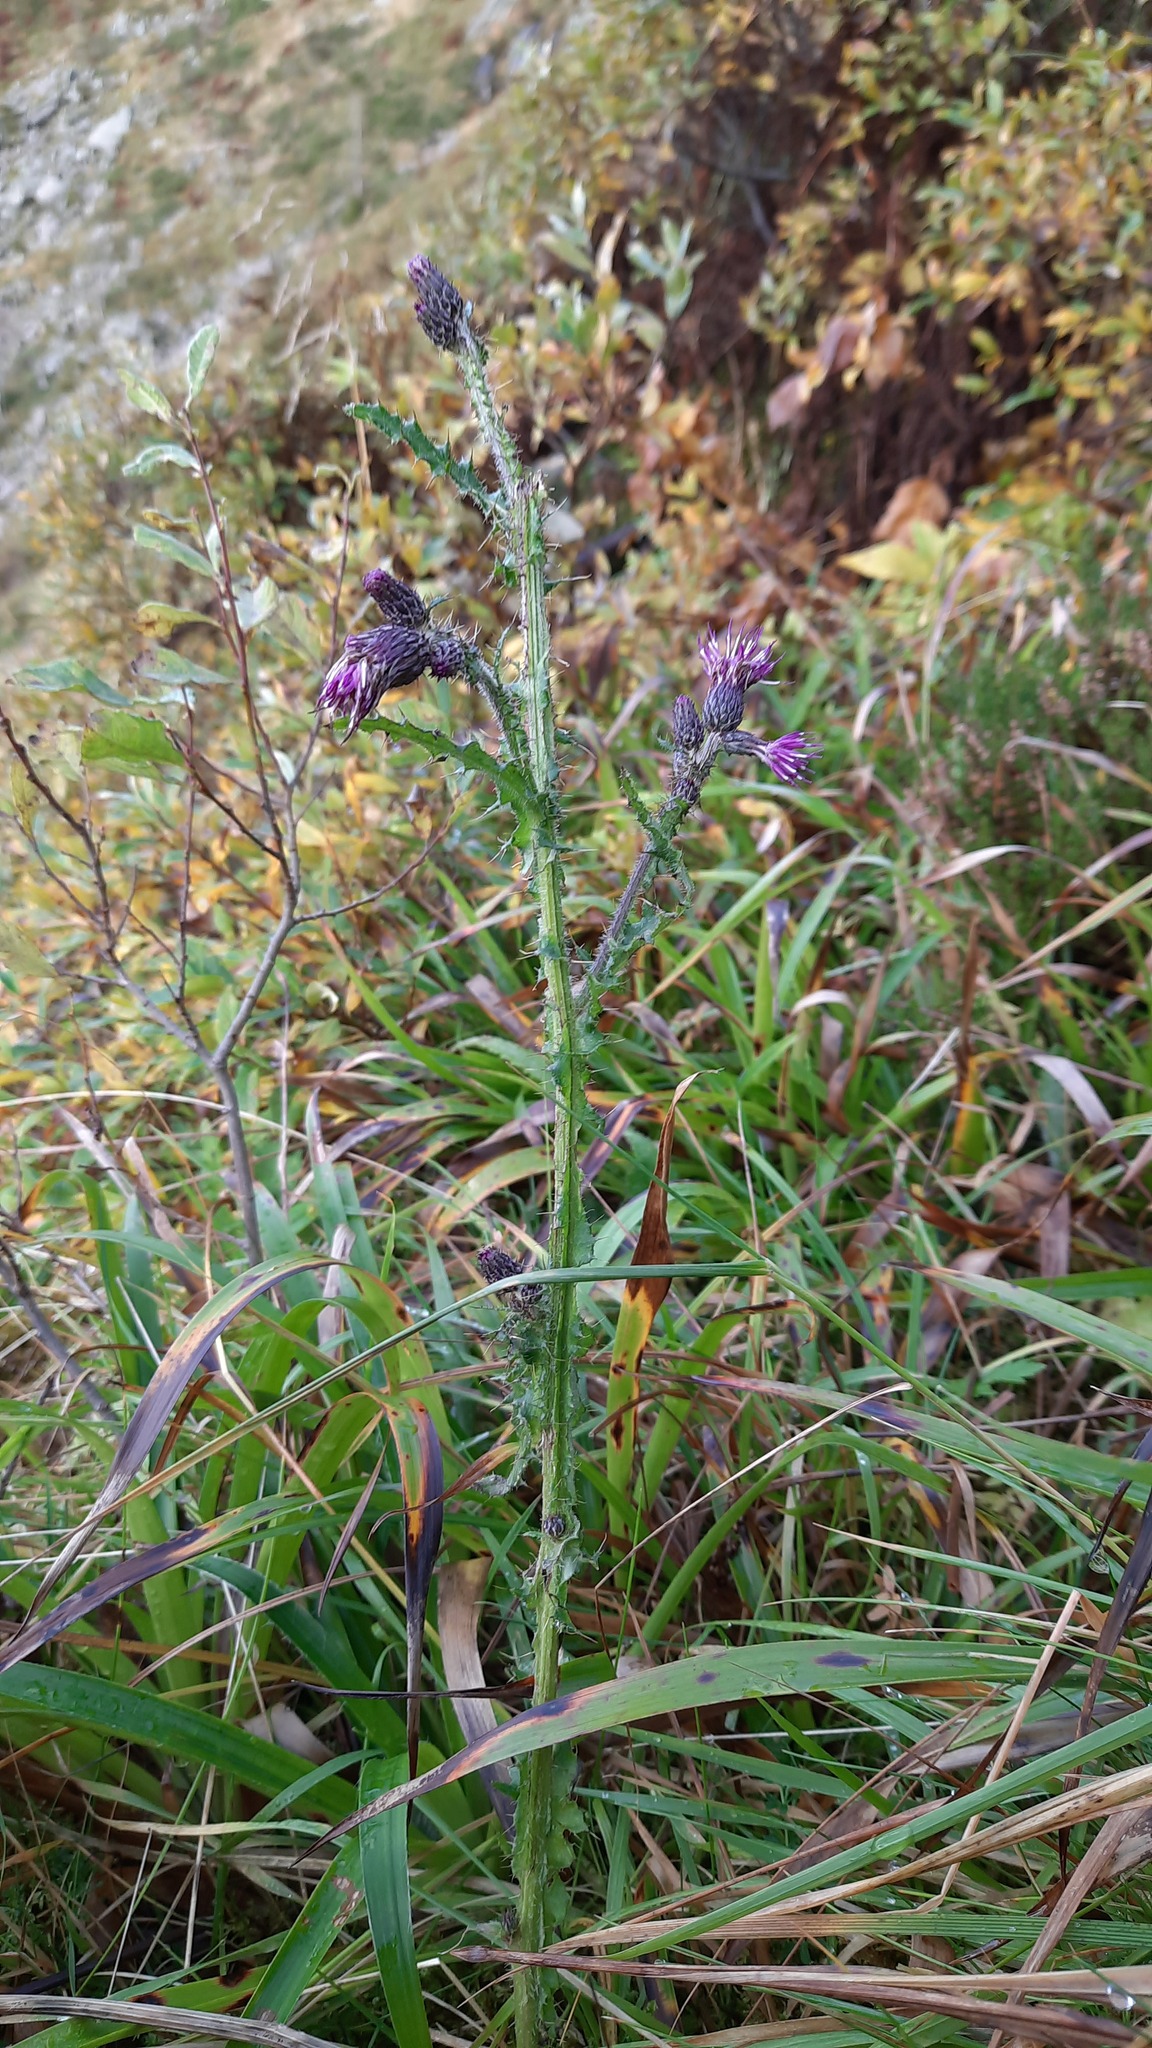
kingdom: Plantae
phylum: Tracheophyta
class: Magnoliopsida
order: Asterales
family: Asteraceae
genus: Cirsium
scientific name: Cirsium palustre
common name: Marsh thistle
